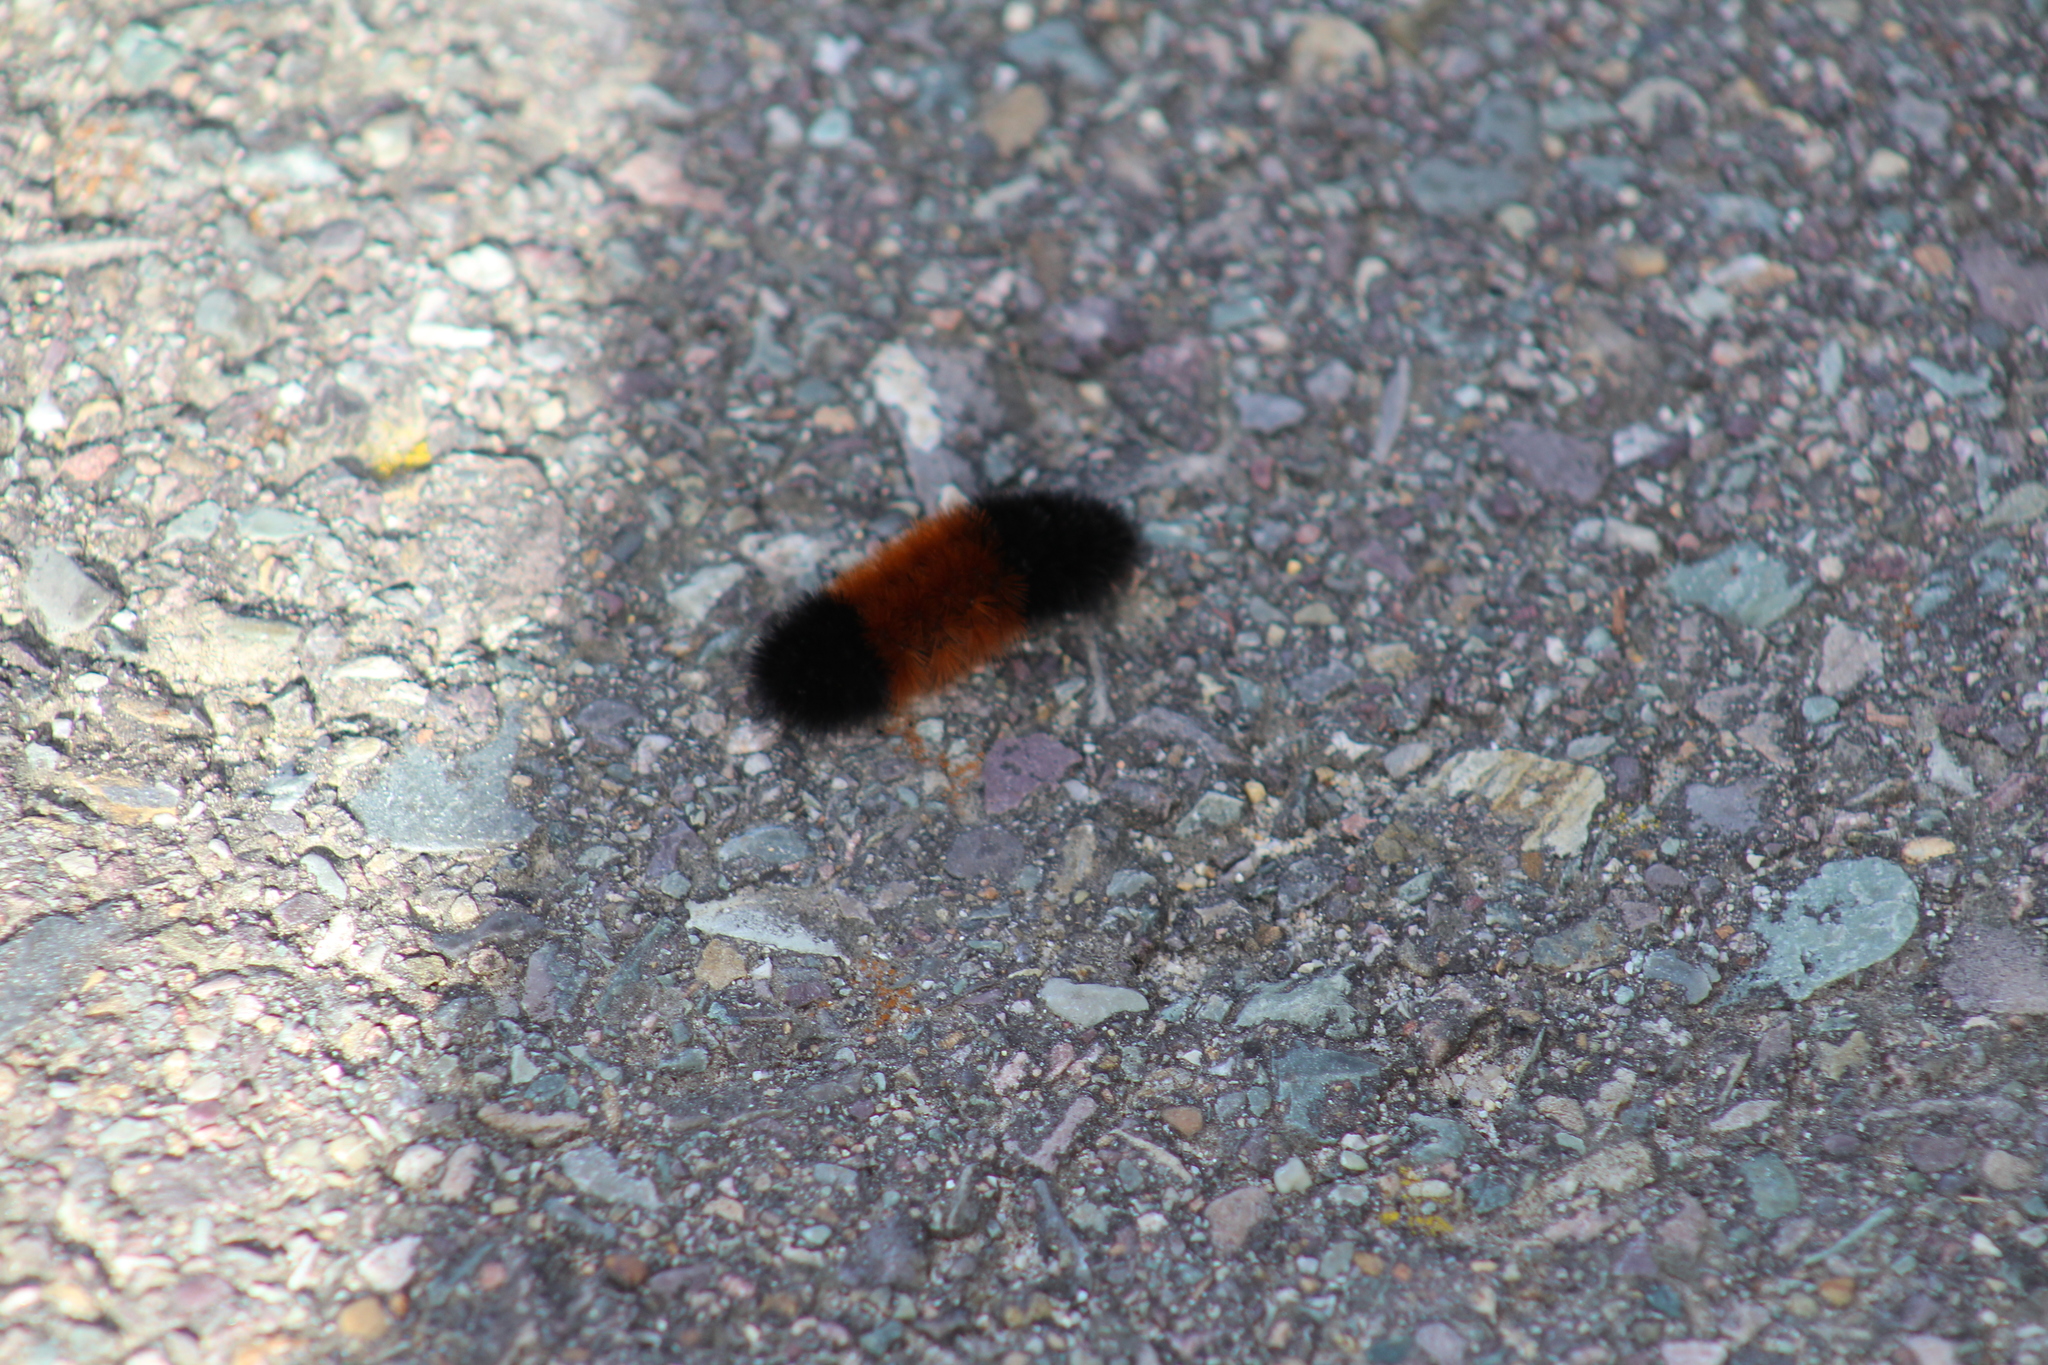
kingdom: Animalia
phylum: Arthropoda
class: Insecta
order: Lepidoptera
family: Erebidae
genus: Pyrrharctia
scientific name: Pyrrharctia isabella
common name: Isabella tiger moth
